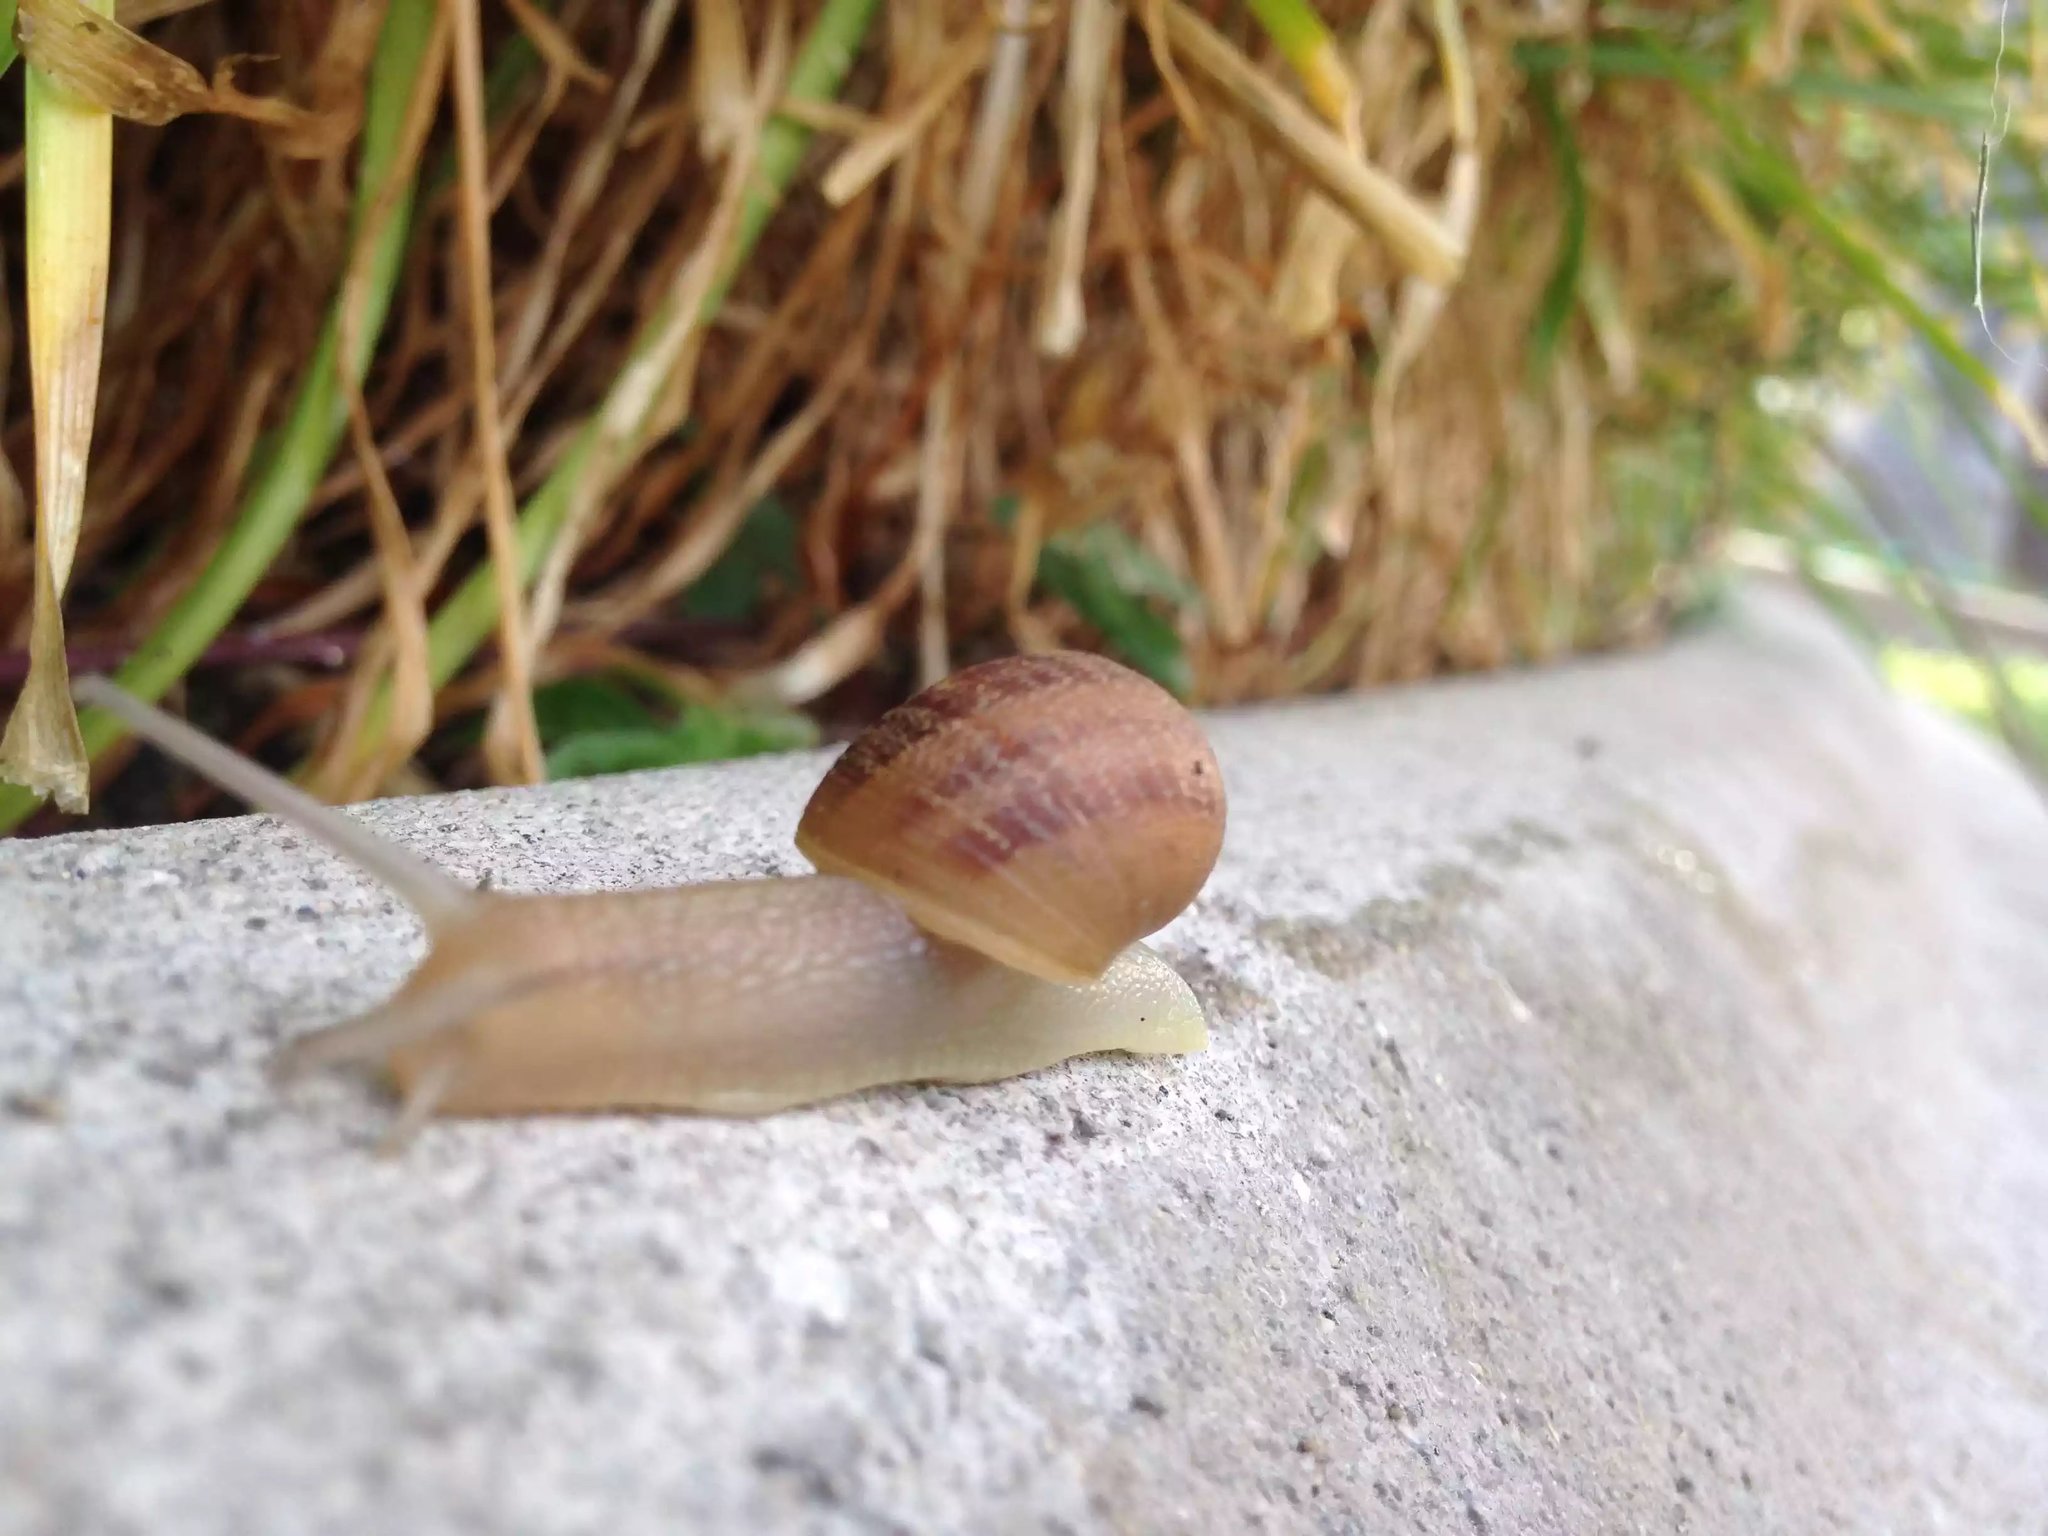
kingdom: Animalia
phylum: Mollusca
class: Gastropoda
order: Stylommatophora
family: Helicidae
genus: Cornu
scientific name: Cornu aspersum
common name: Brown garden snail
